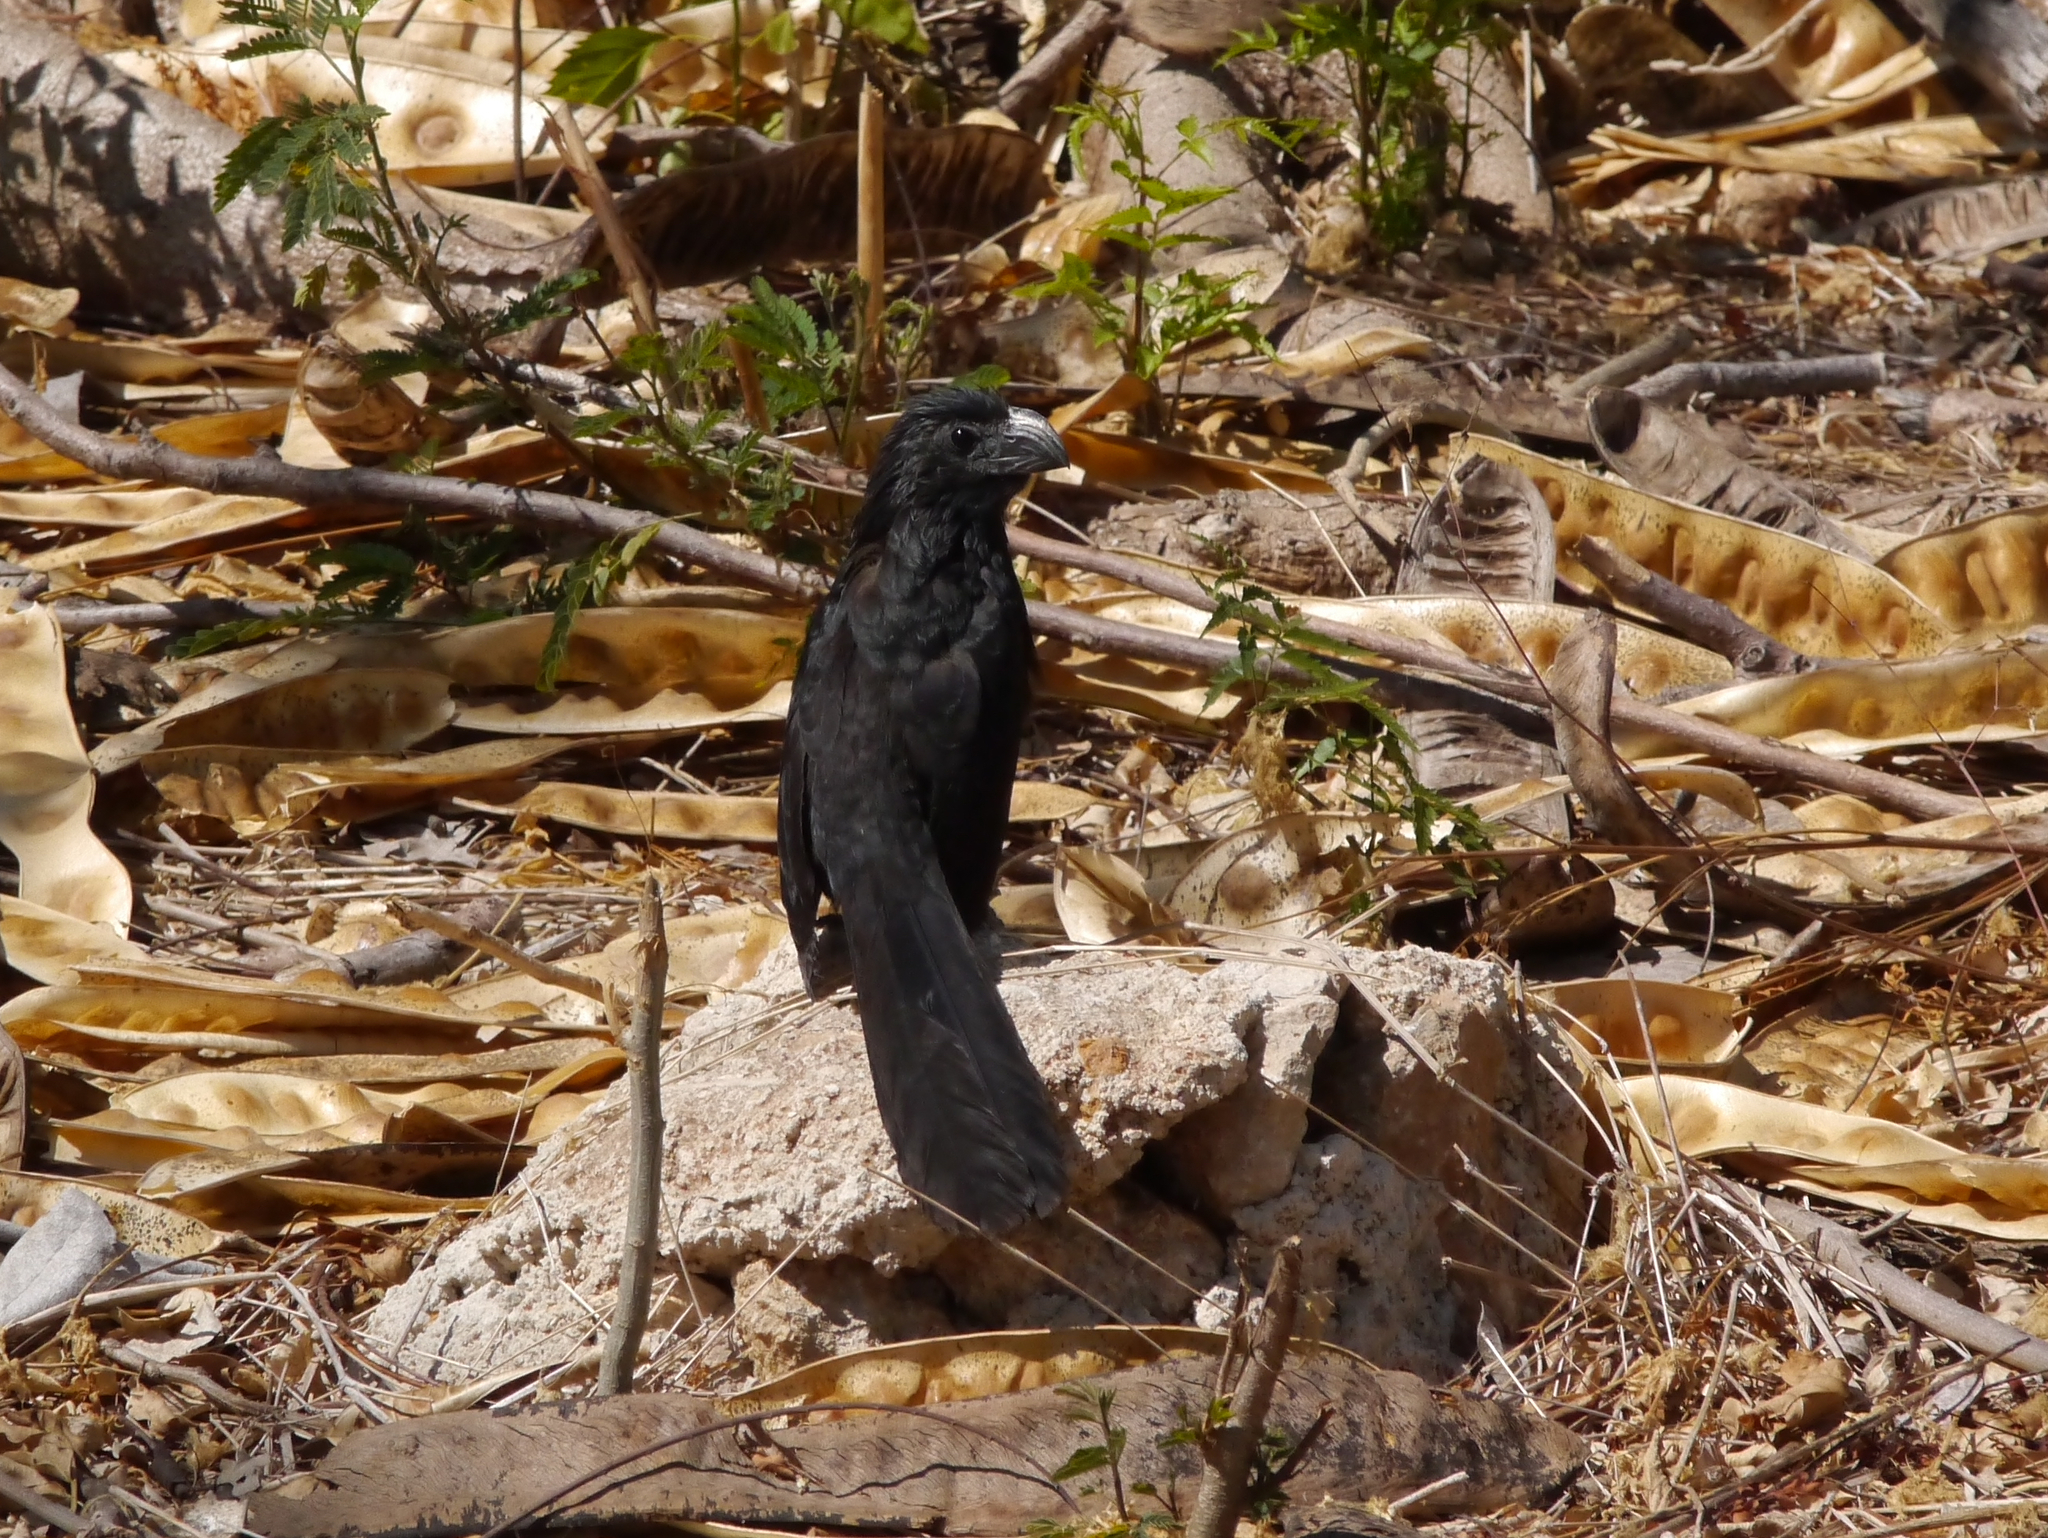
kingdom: Animalia
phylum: Chordata
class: Aves
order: Cuculiformes
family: Cuculidae
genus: Crotophaga
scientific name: Crotophaga sulcirostris
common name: Groove-billed ani
